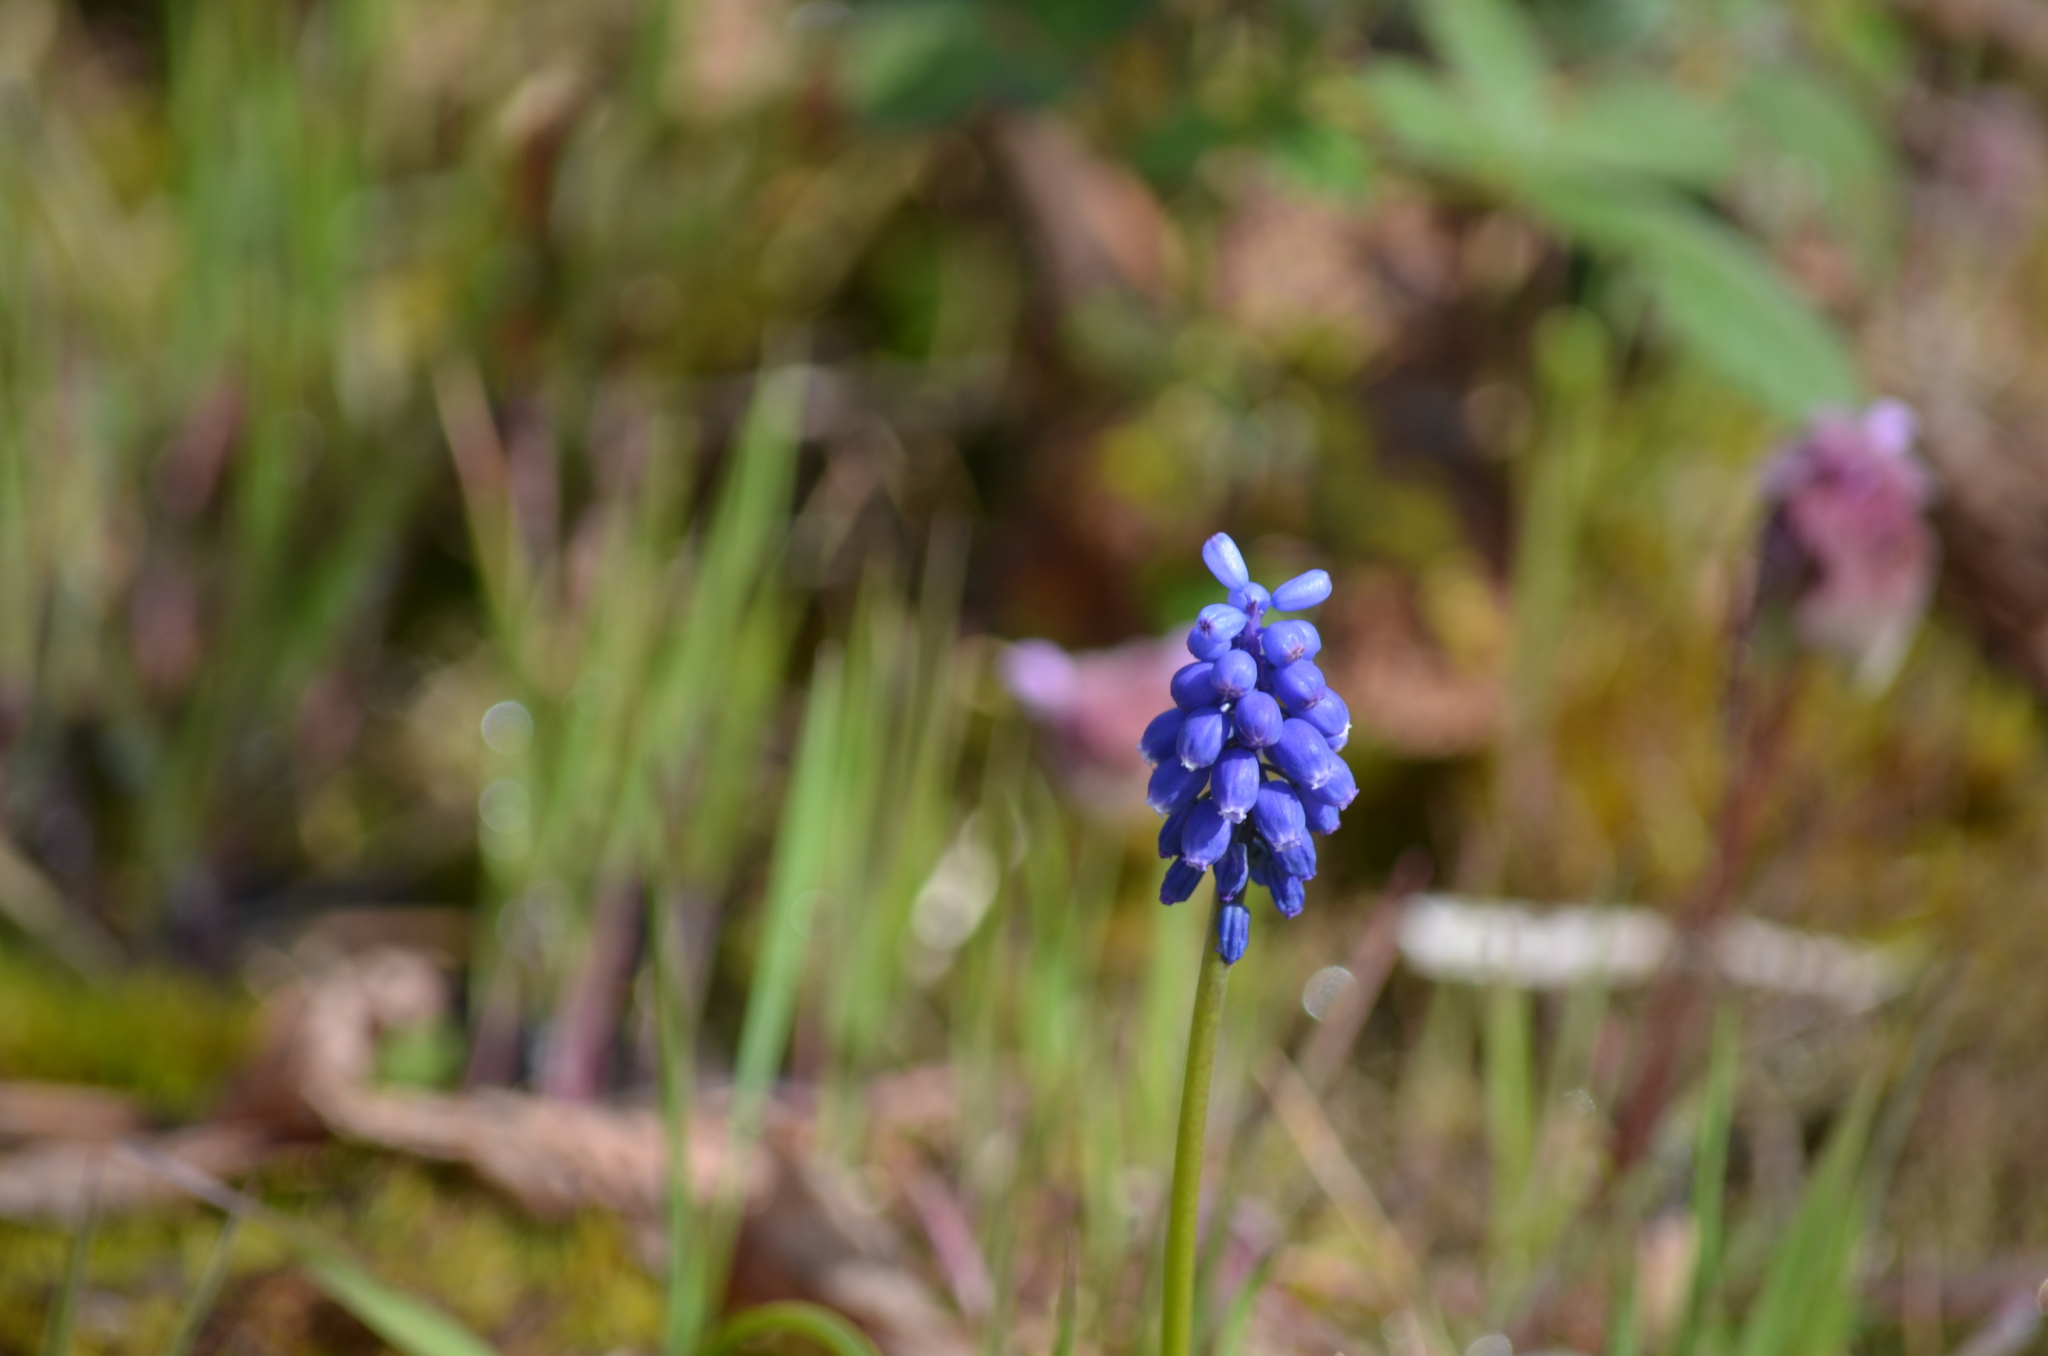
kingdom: Plantae
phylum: Tracheophyta
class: Liliopsida
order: Asparagales
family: Asparagaceae
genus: Muscari
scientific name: Muscari armeniacum
